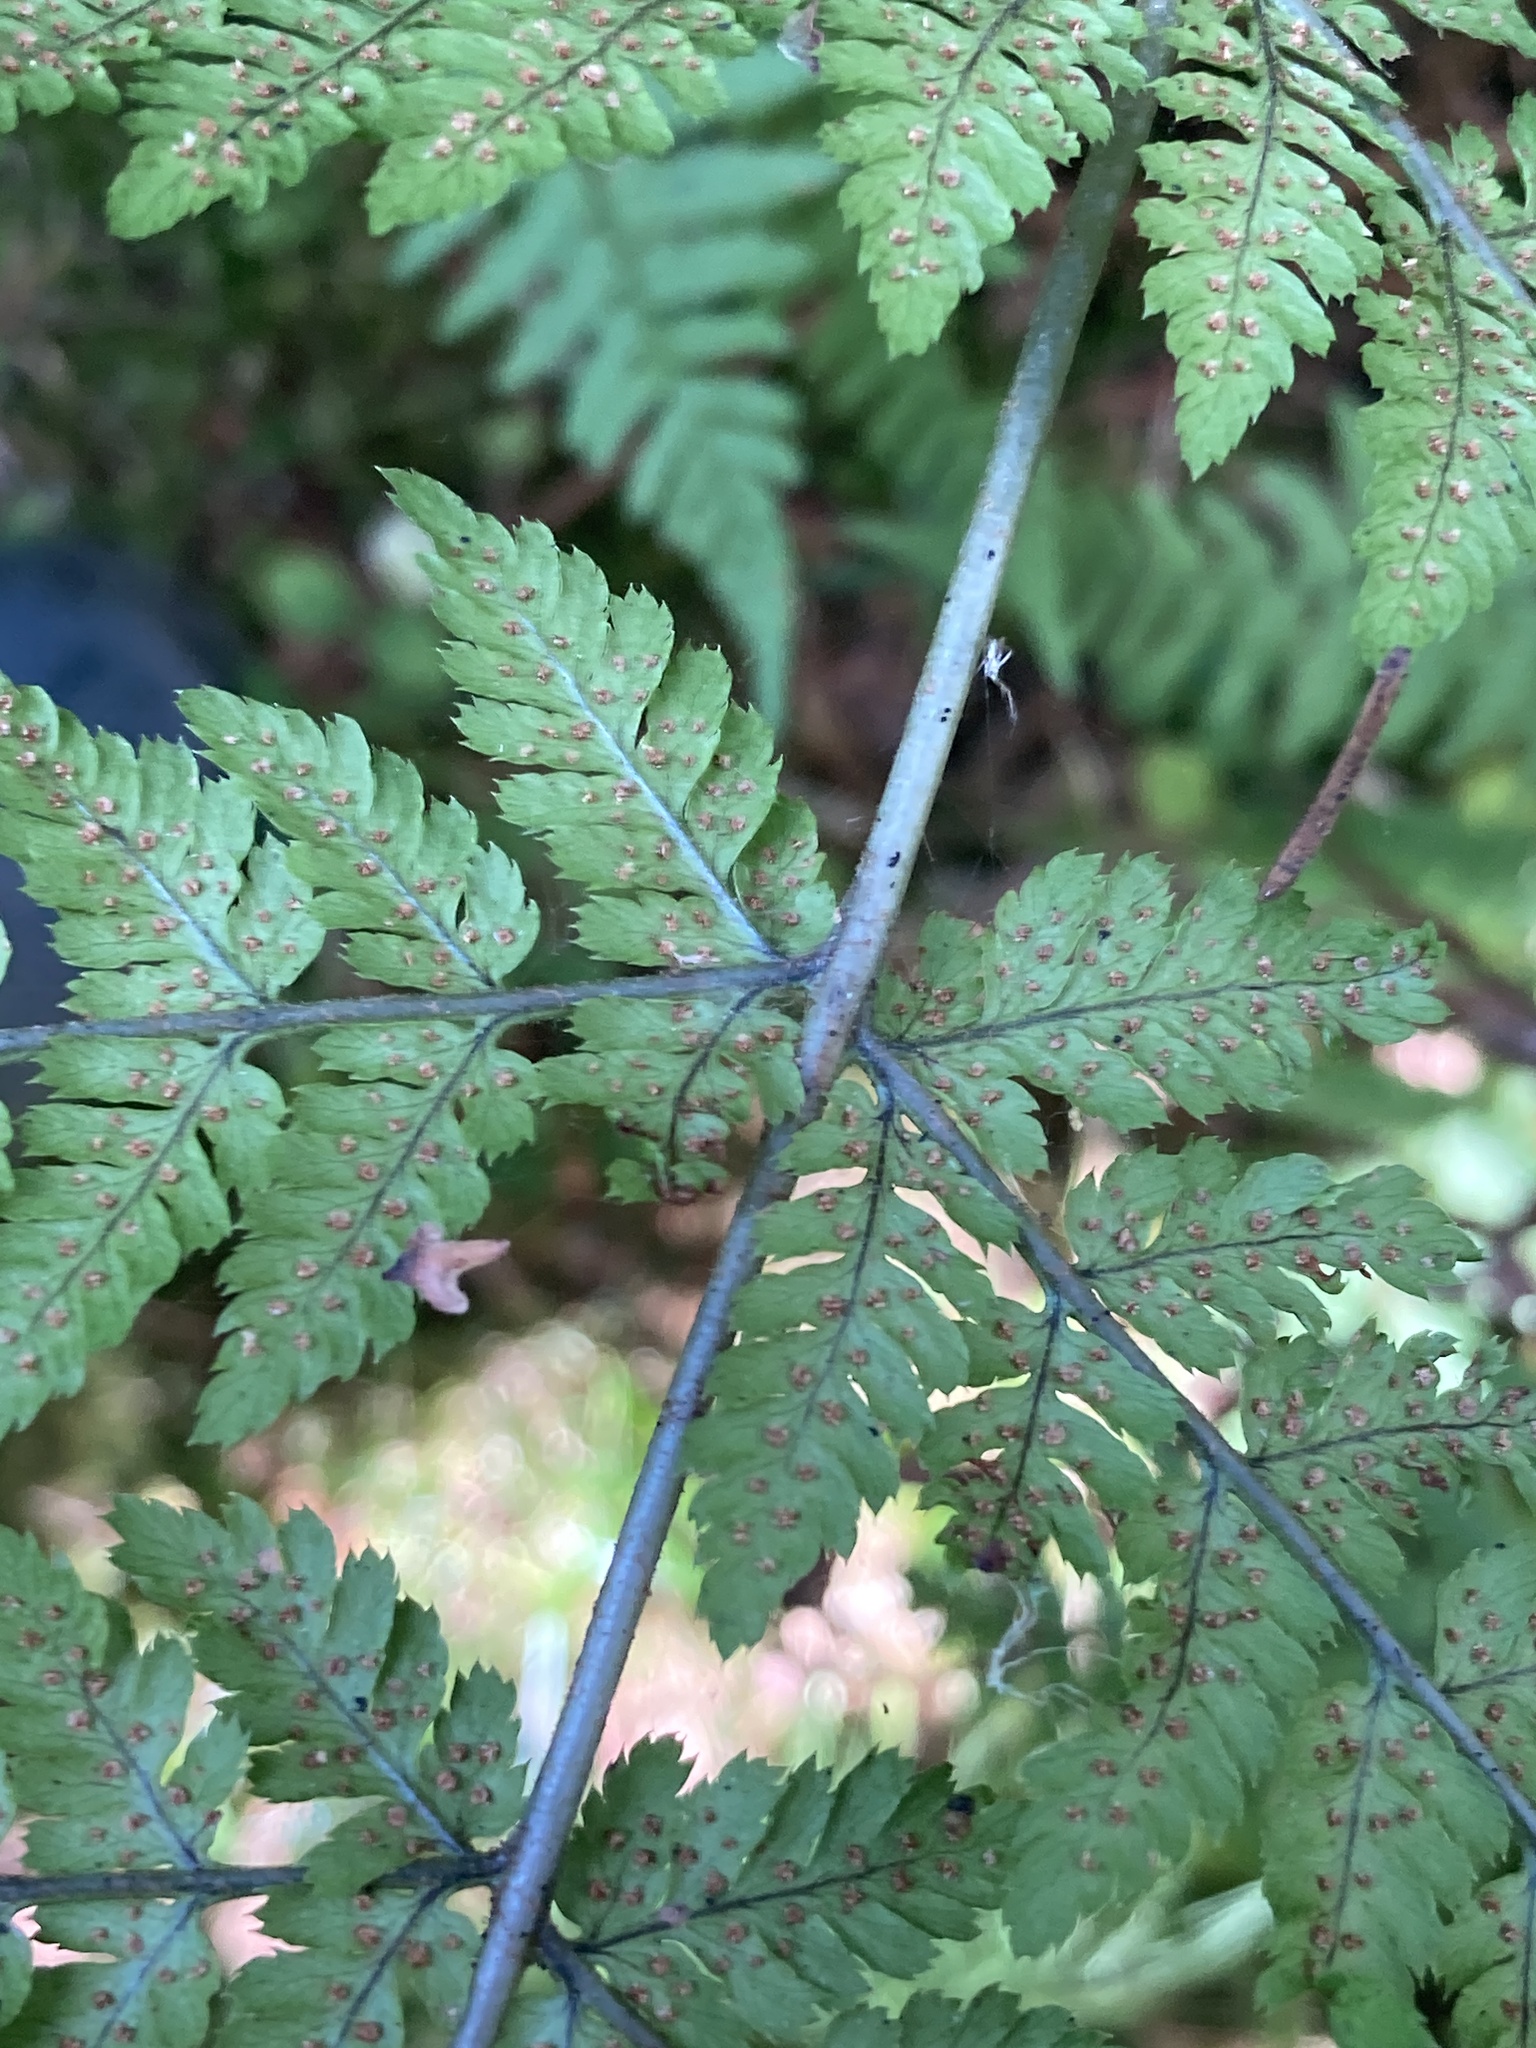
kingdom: Plantae
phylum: Tracheophyta
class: Polypodiopsida
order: Polypodiales
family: Dryopteridaceae
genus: Dryopteris
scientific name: Dryopteris expansa
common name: Northern buckler fern
